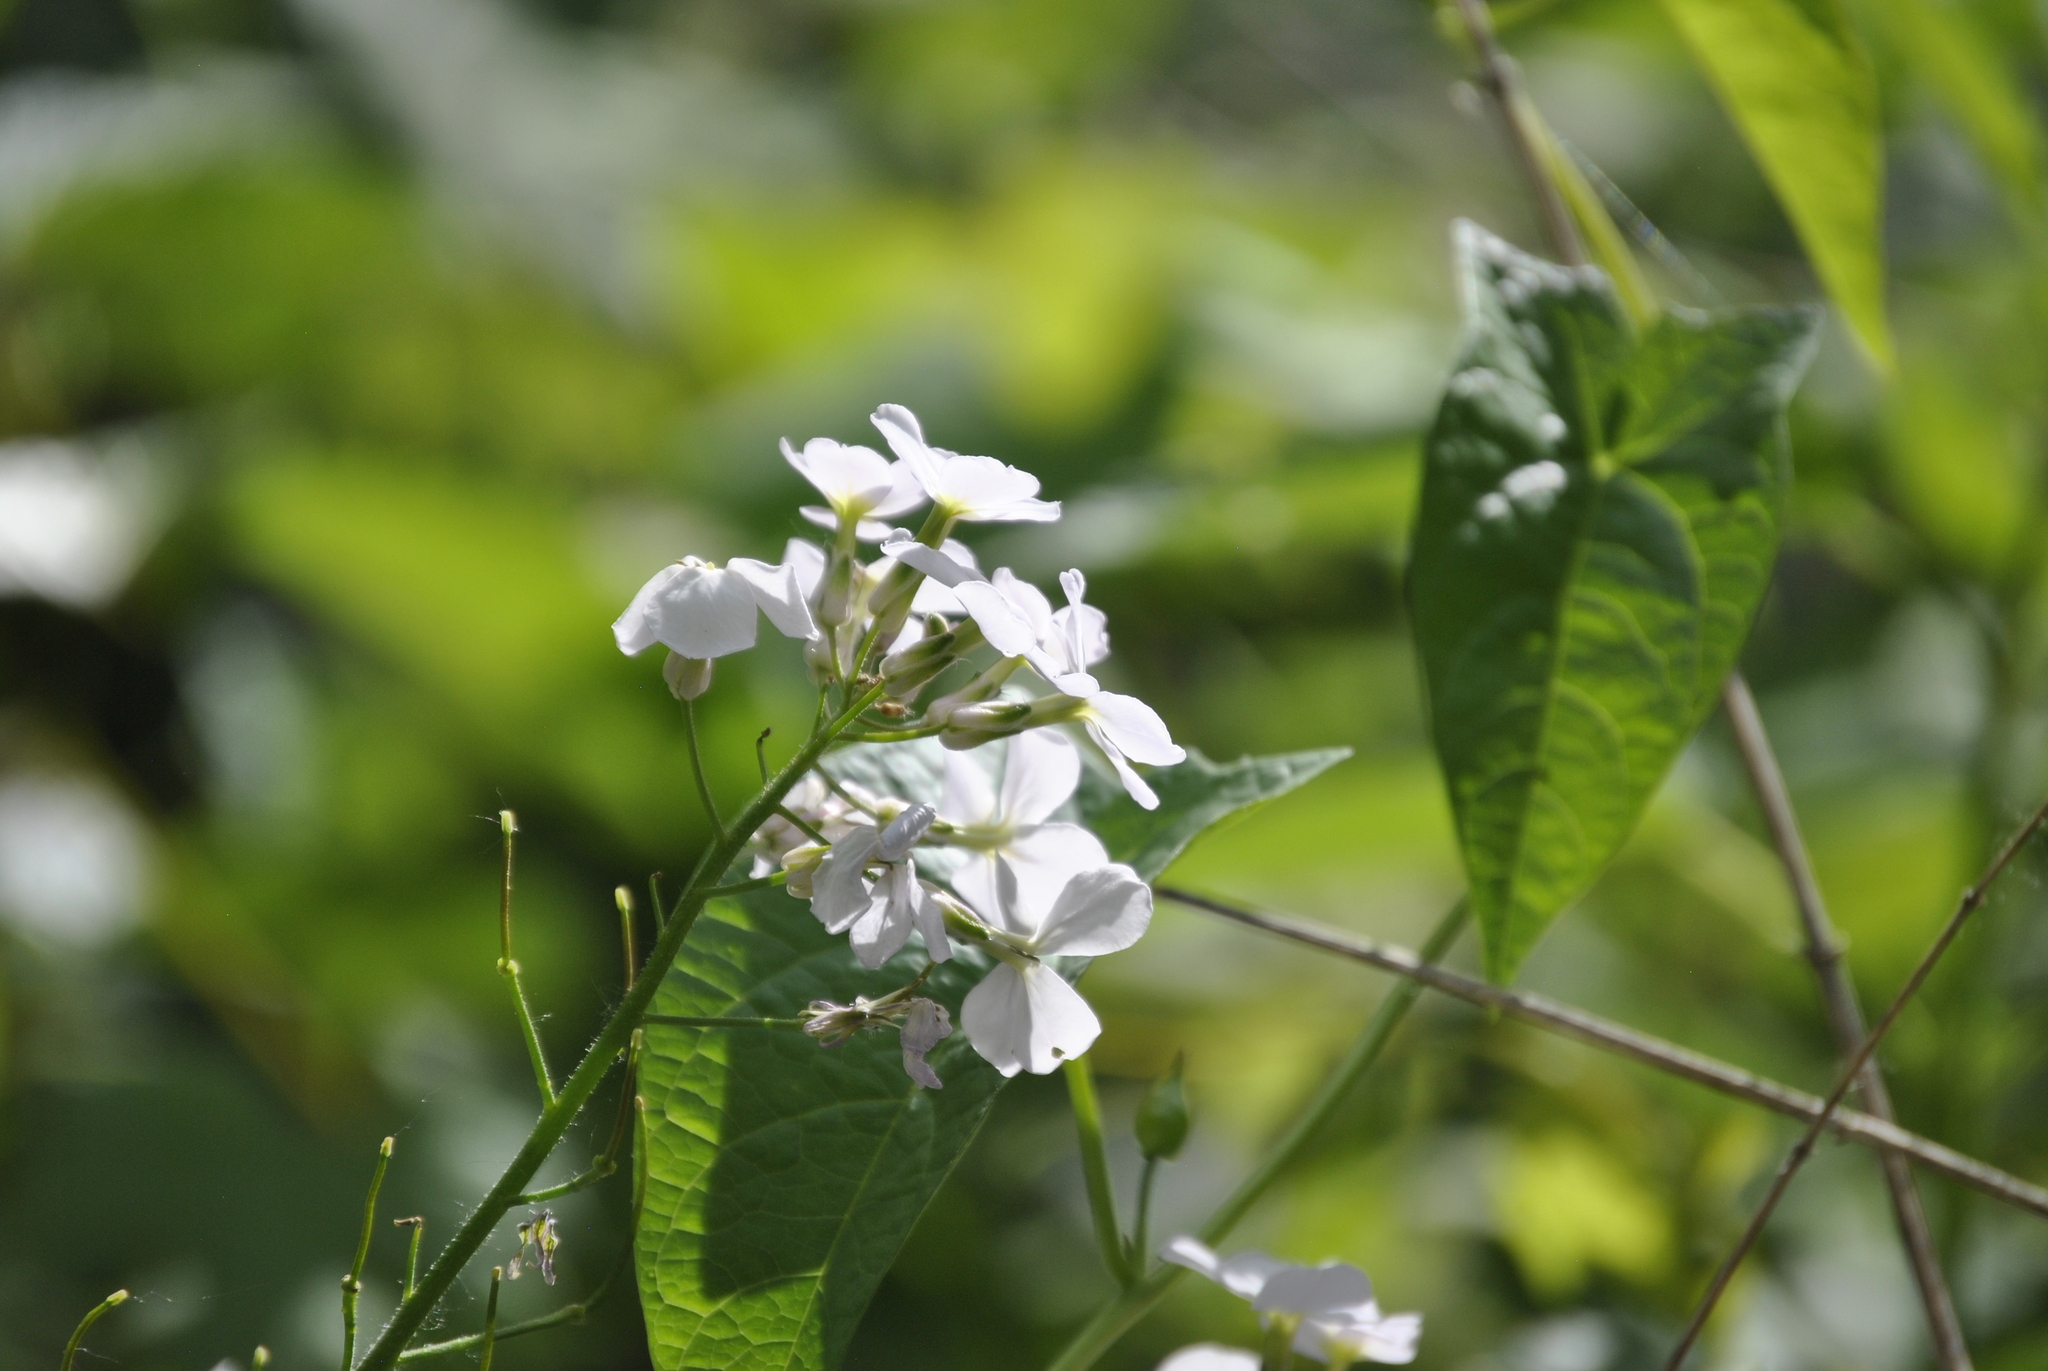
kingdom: Plantae
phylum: Tracheophyta
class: Magnoliopsida
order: Brassicales
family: Brassicaceae
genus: Hesperis
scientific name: Hesperis matronalis
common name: Dame's-violet
